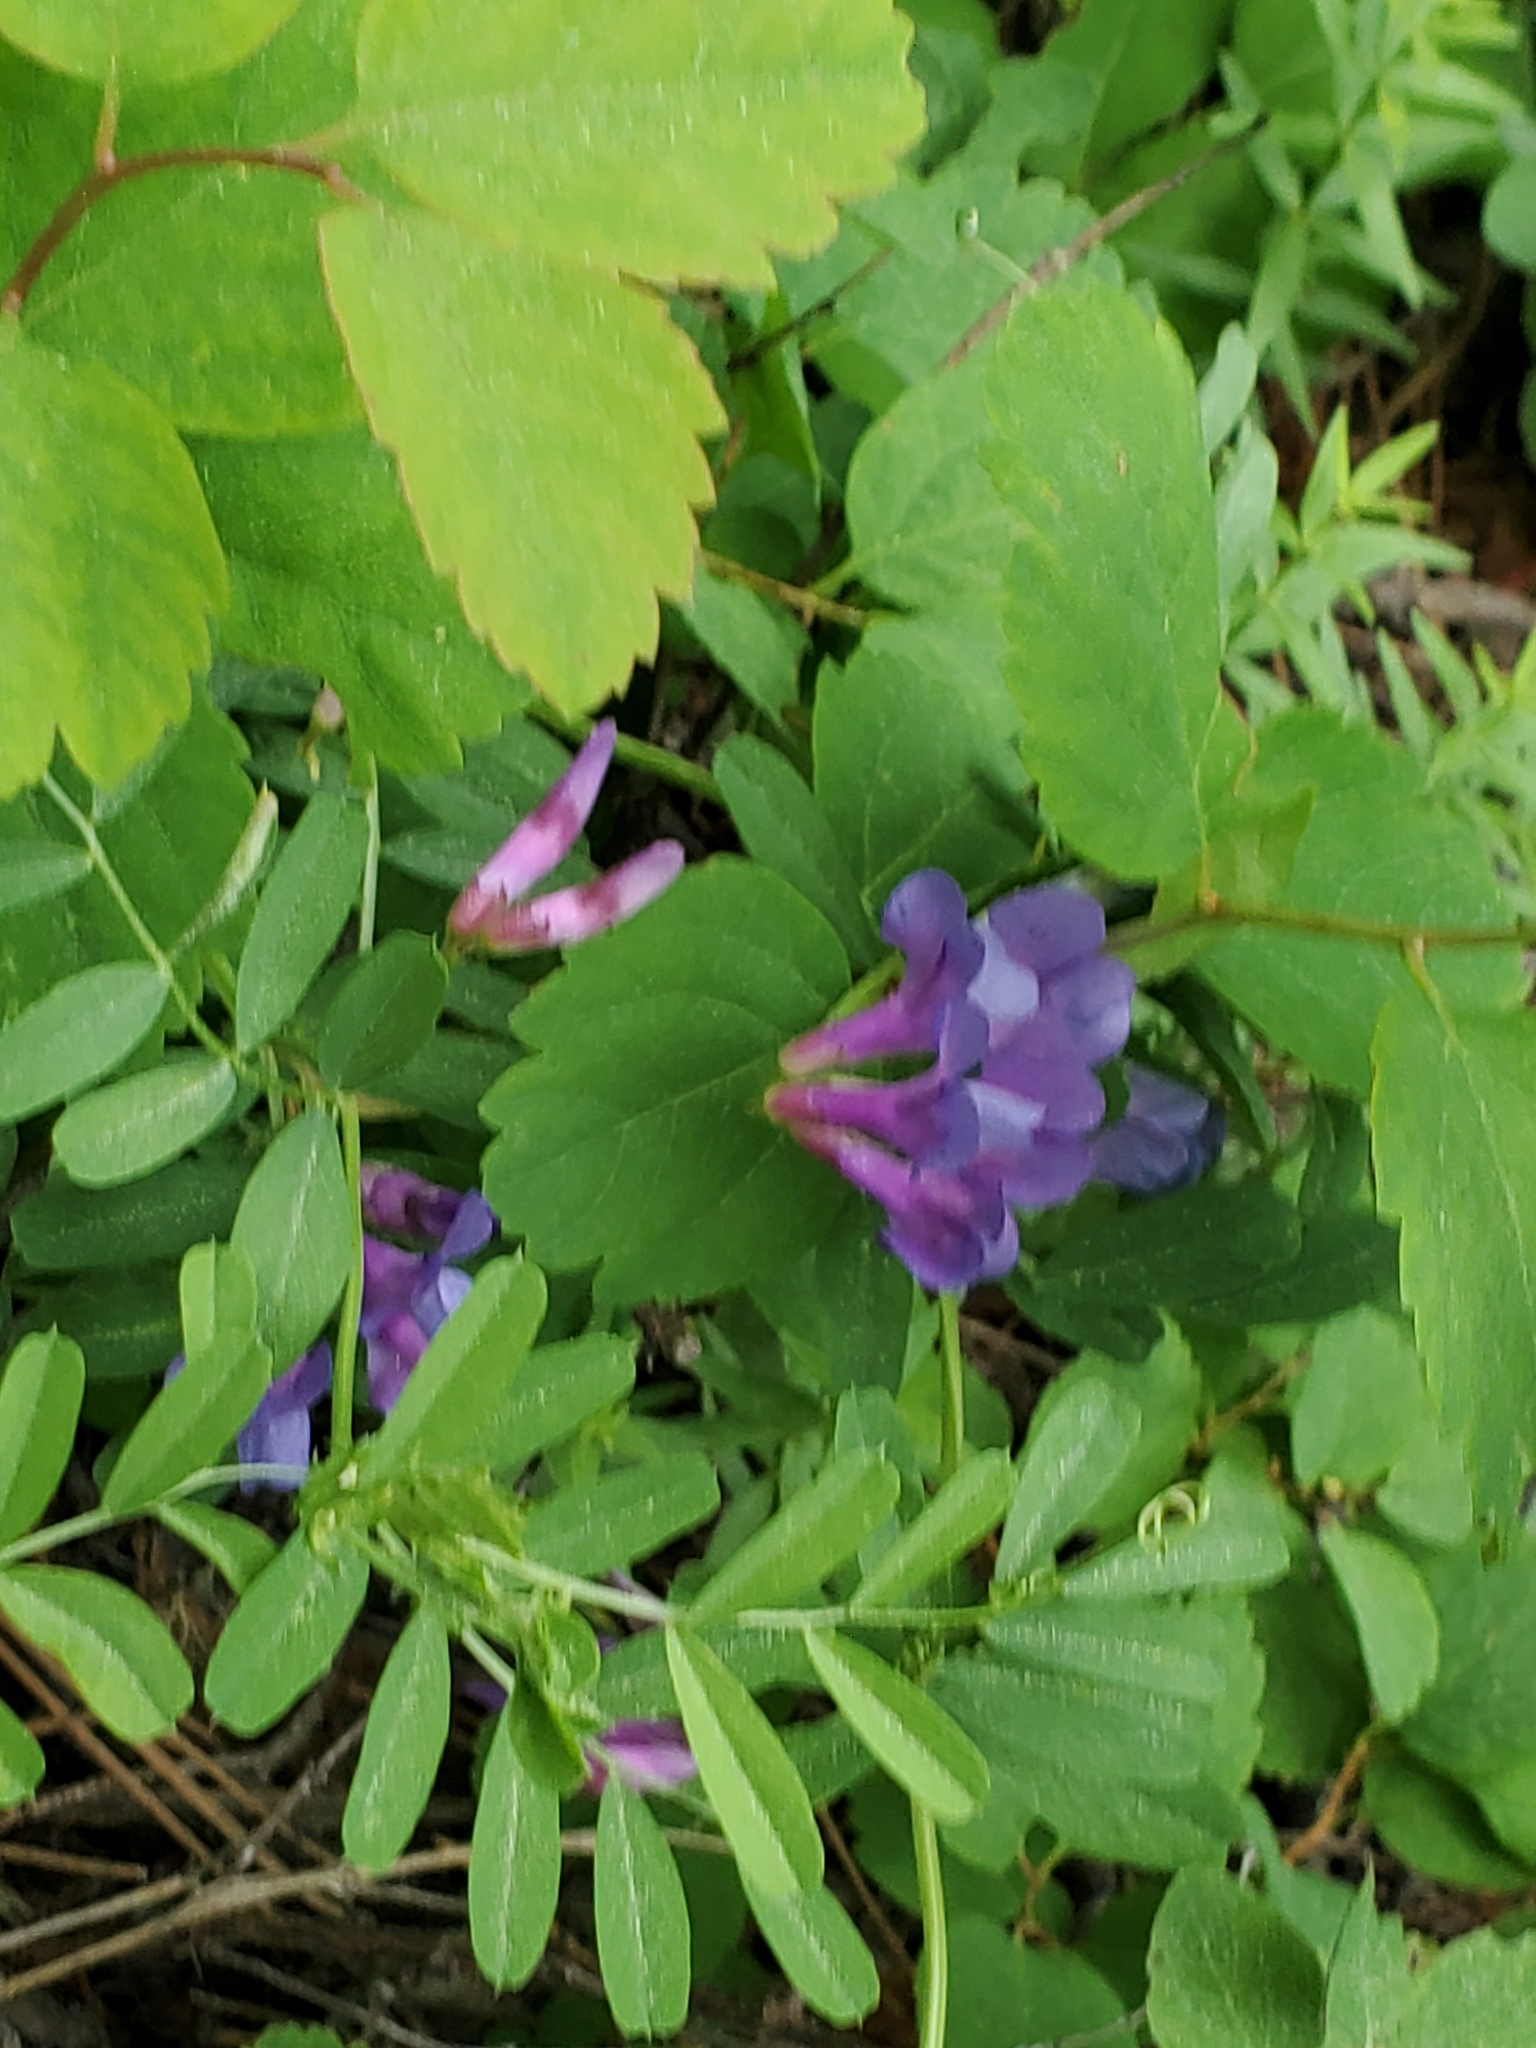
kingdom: Plantae
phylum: Tracheophyta
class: Magnoliopsida
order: Fabales
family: Fabaceae
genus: Vicia
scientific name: Vicia americana
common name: American vetch
